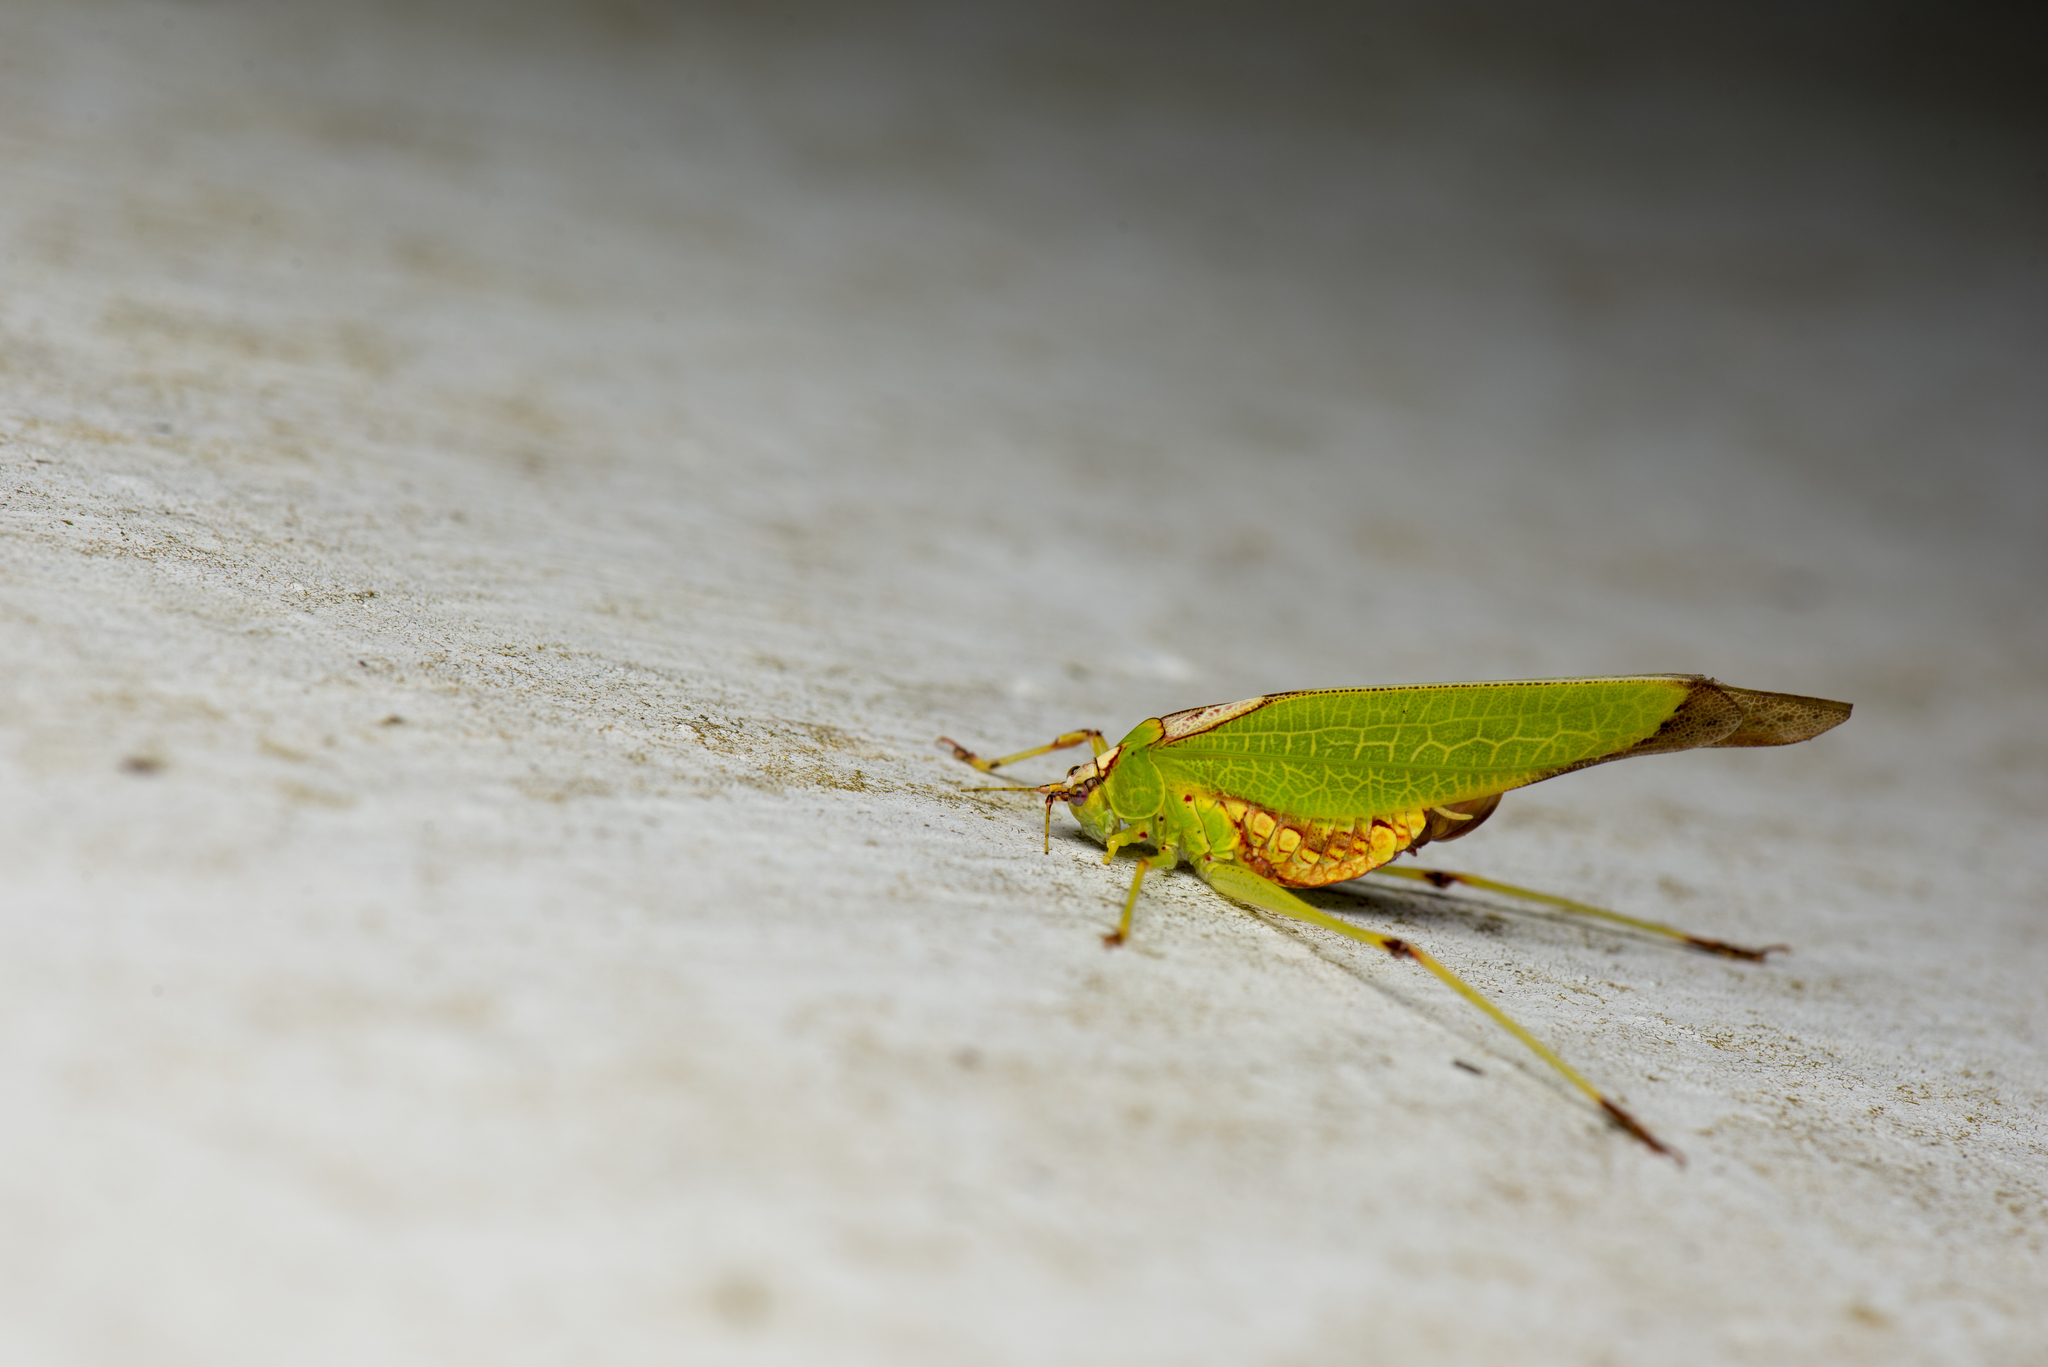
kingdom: Animalia
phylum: Arthropoda
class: Insecta
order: Orthoptera
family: Tettigoniidae
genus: Deflorita
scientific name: Deflorita apicalis
